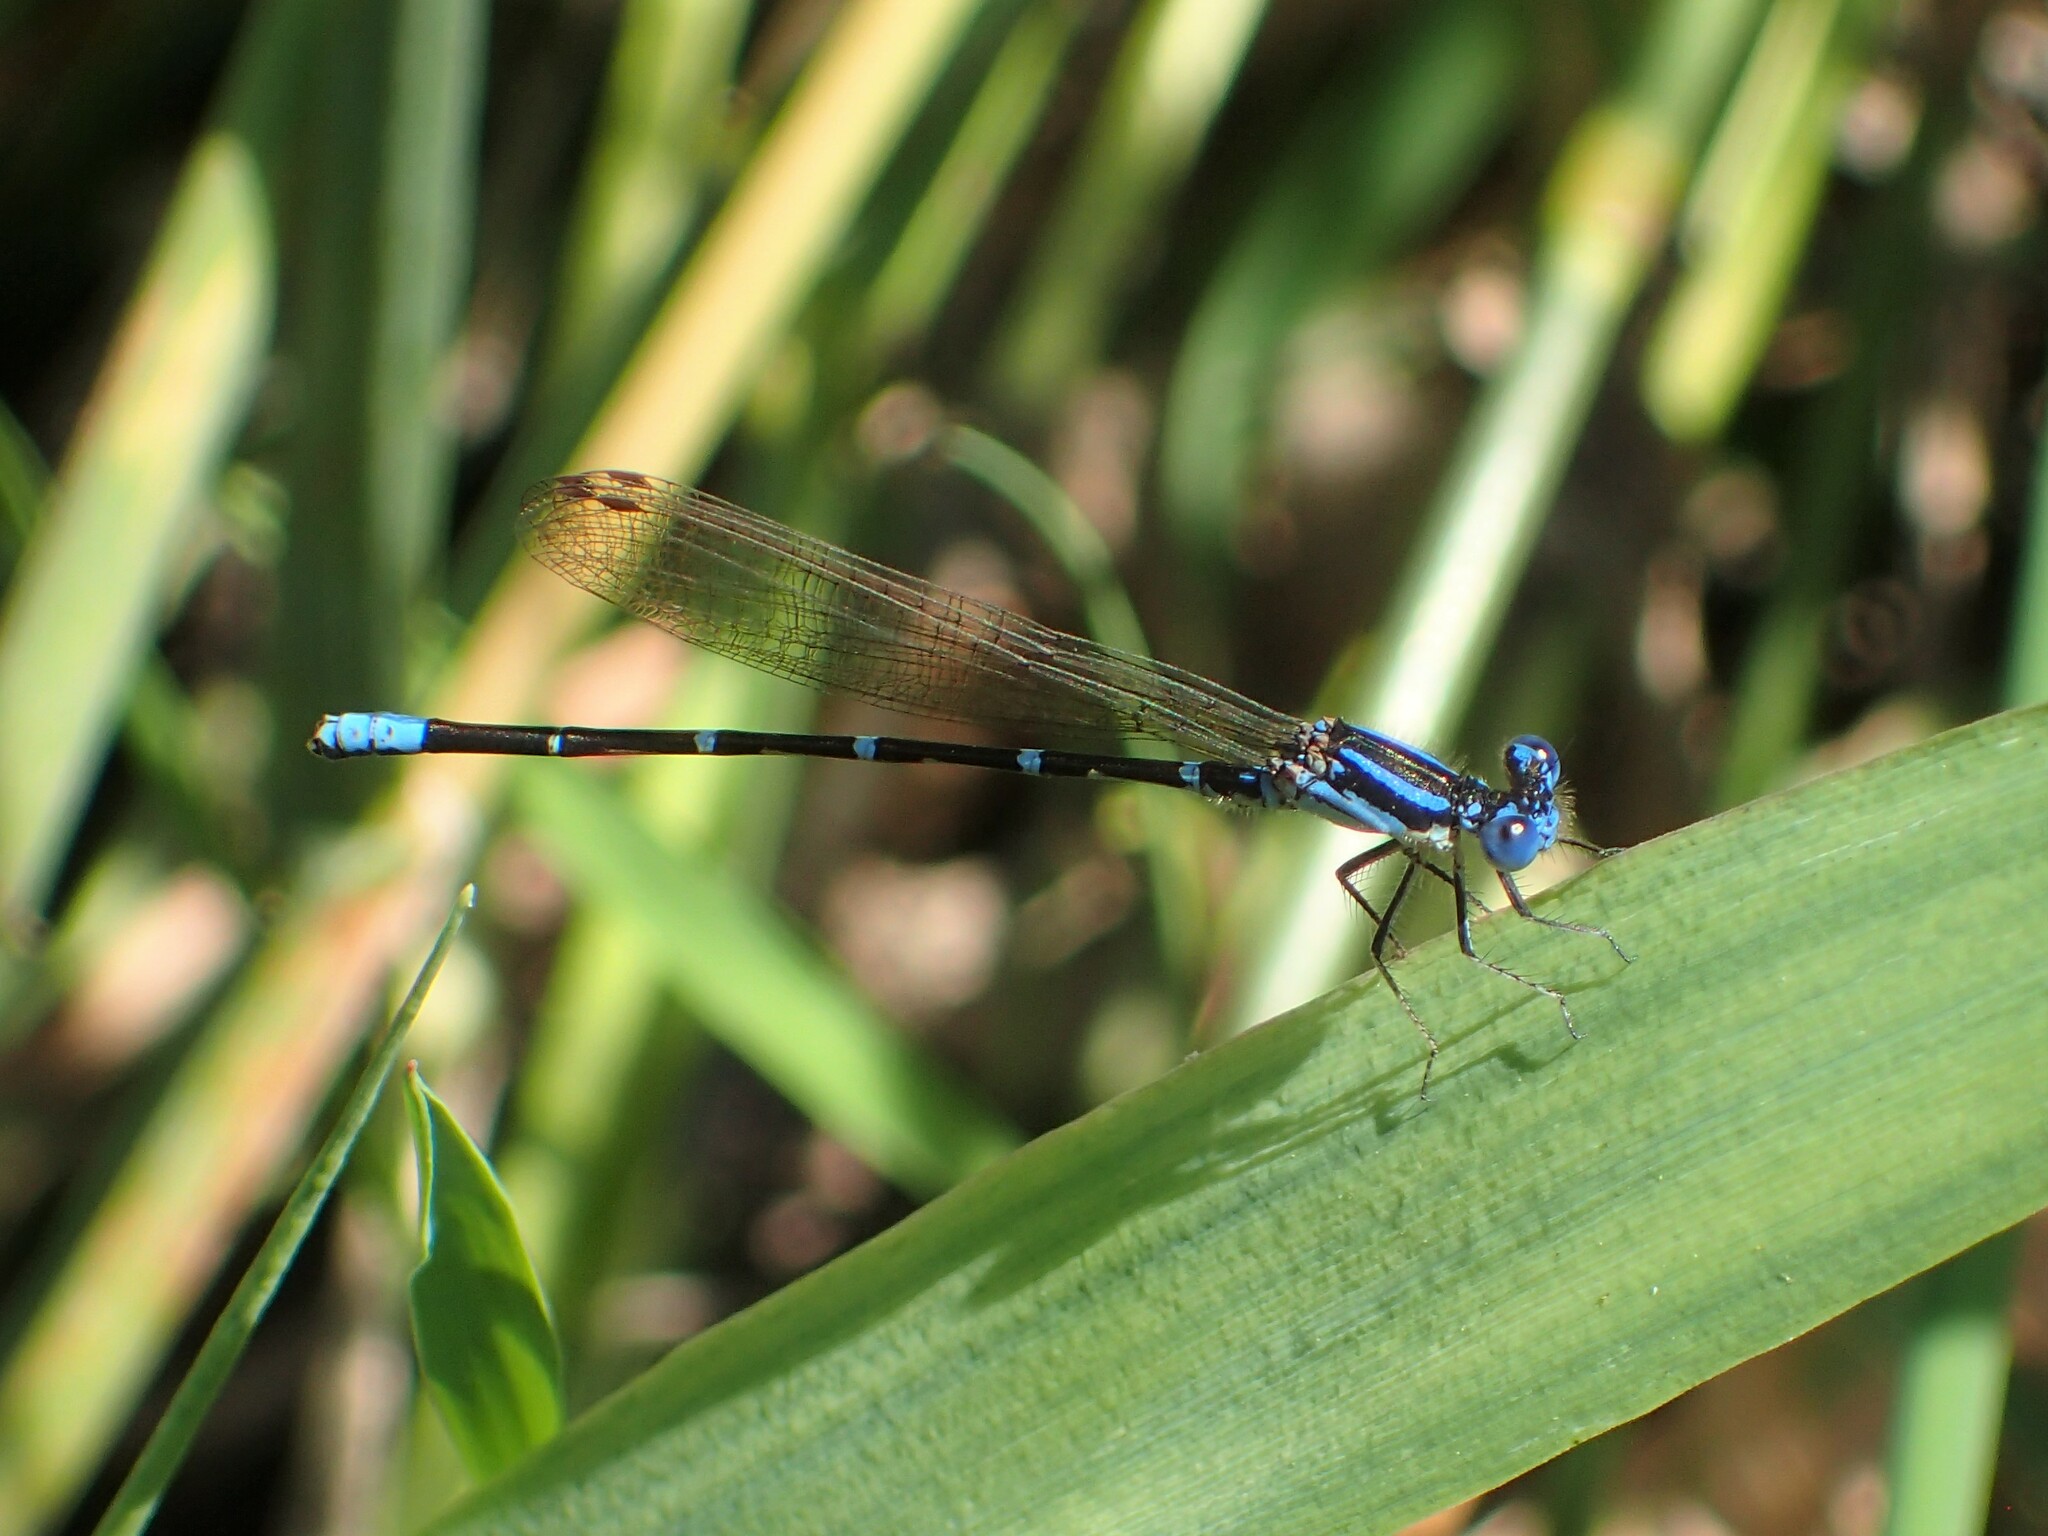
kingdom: Animalia
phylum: Arthropoda
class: Insecta
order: Odonata
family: Coenagrionidae
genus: Argia
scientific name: Argia sedula
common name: Blue-ringed dancer
